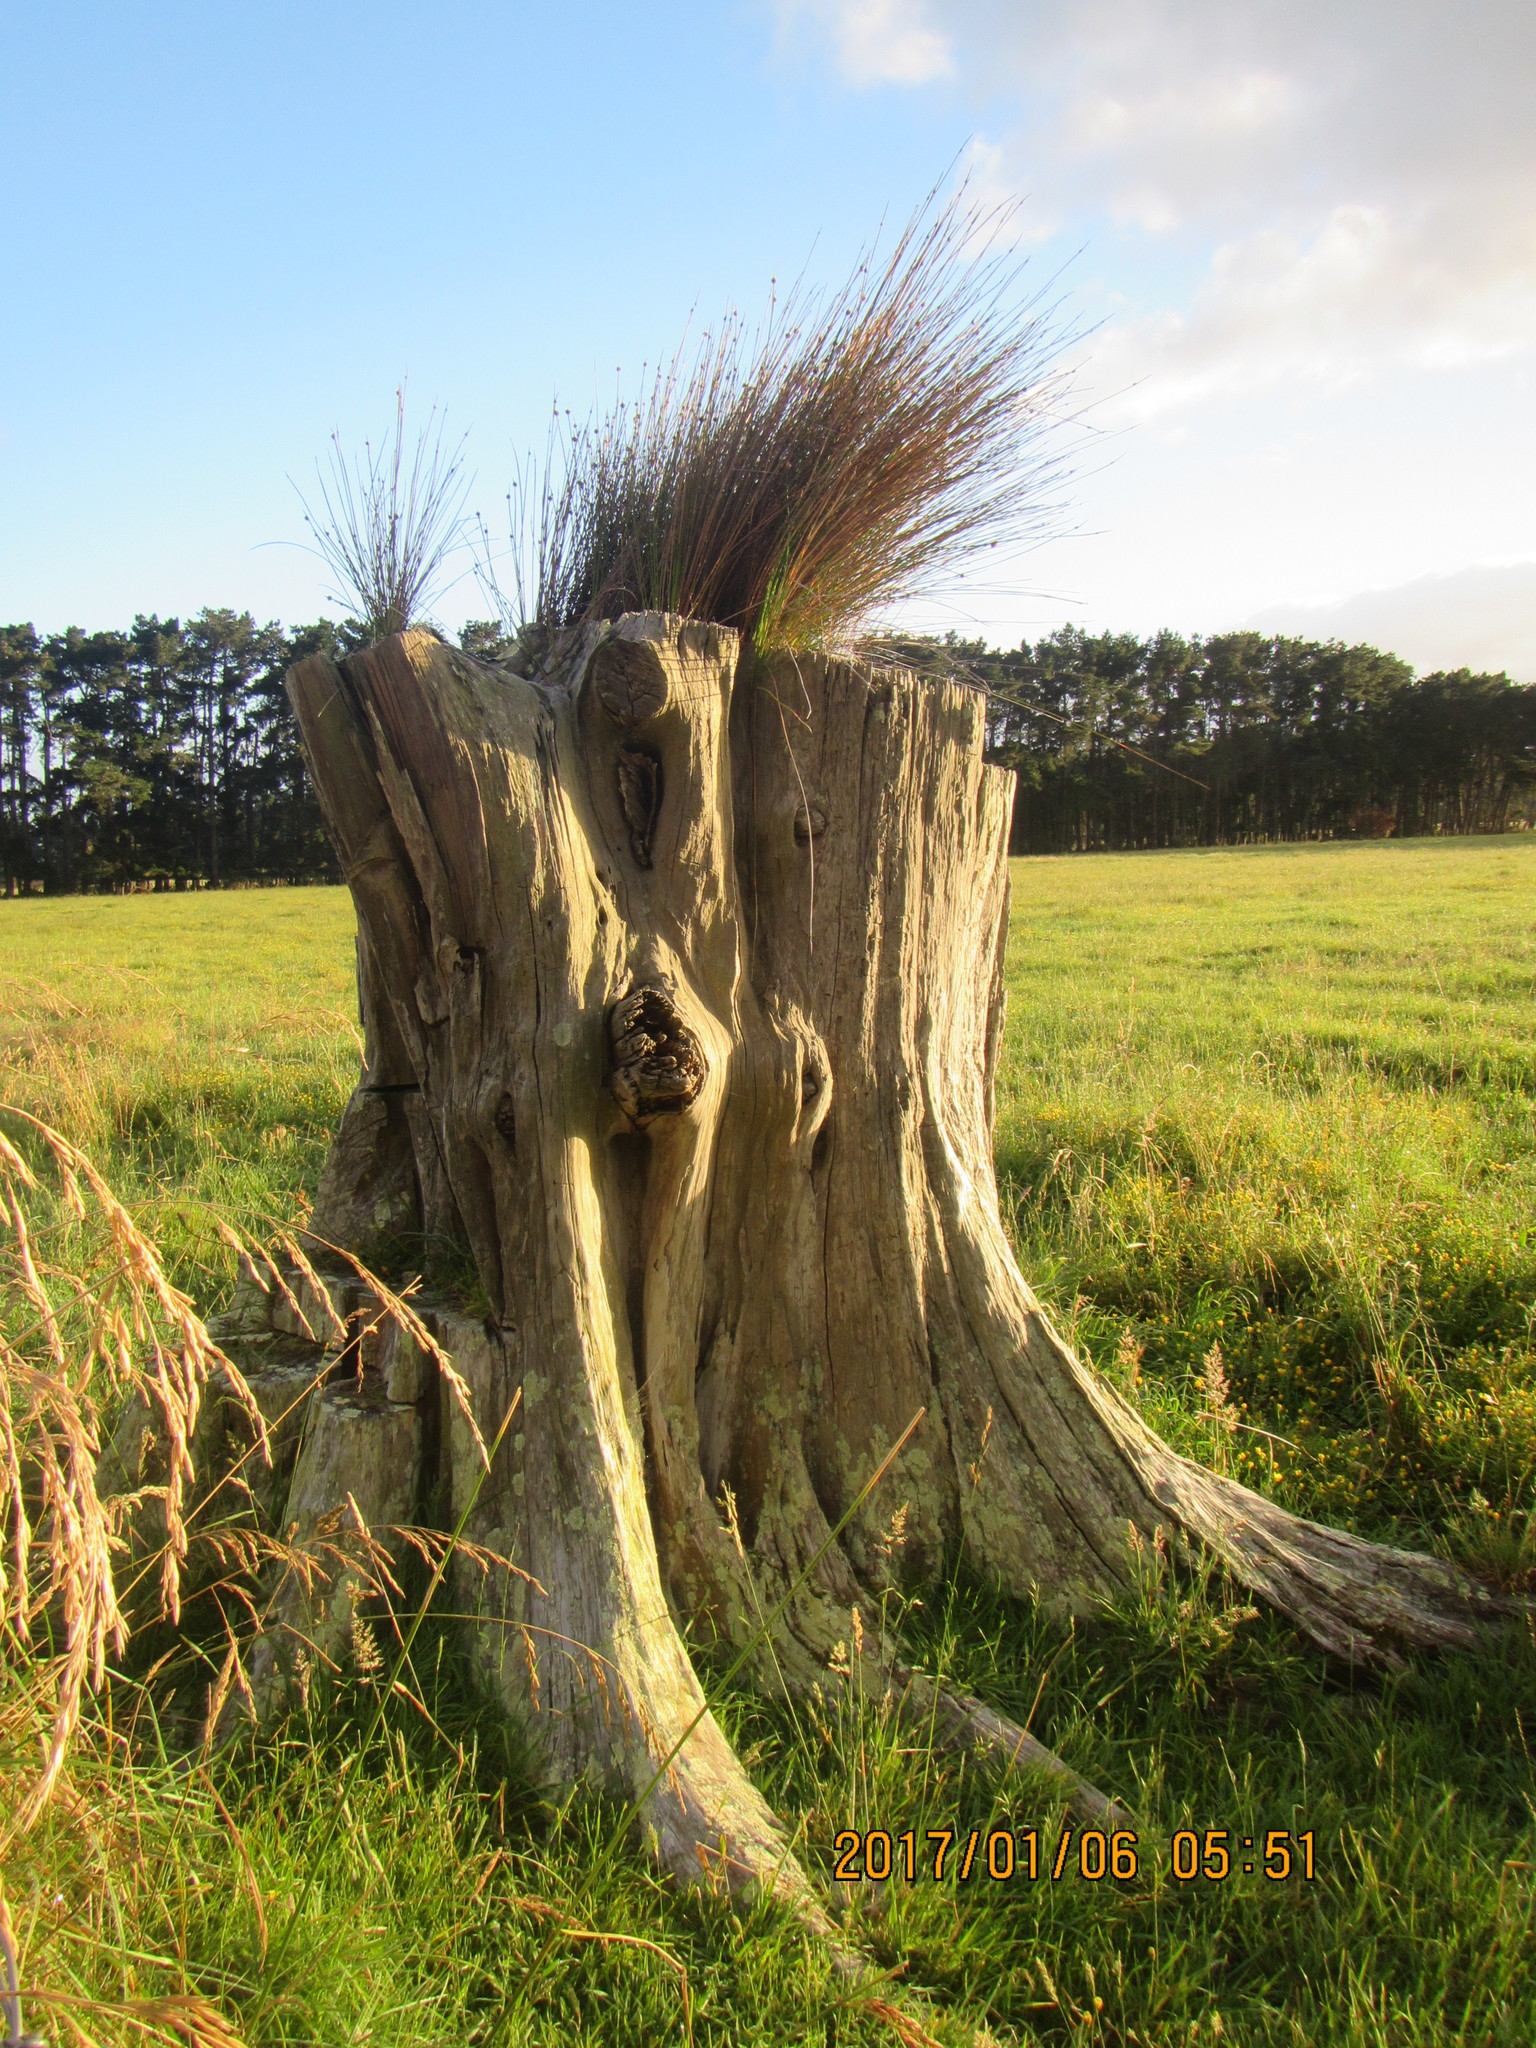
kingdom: Plantae
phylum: Tracheophyta
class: Liliopsida
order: Poales
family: Cyperaceae
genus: Ficinia
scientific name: Ficinia nodosa
